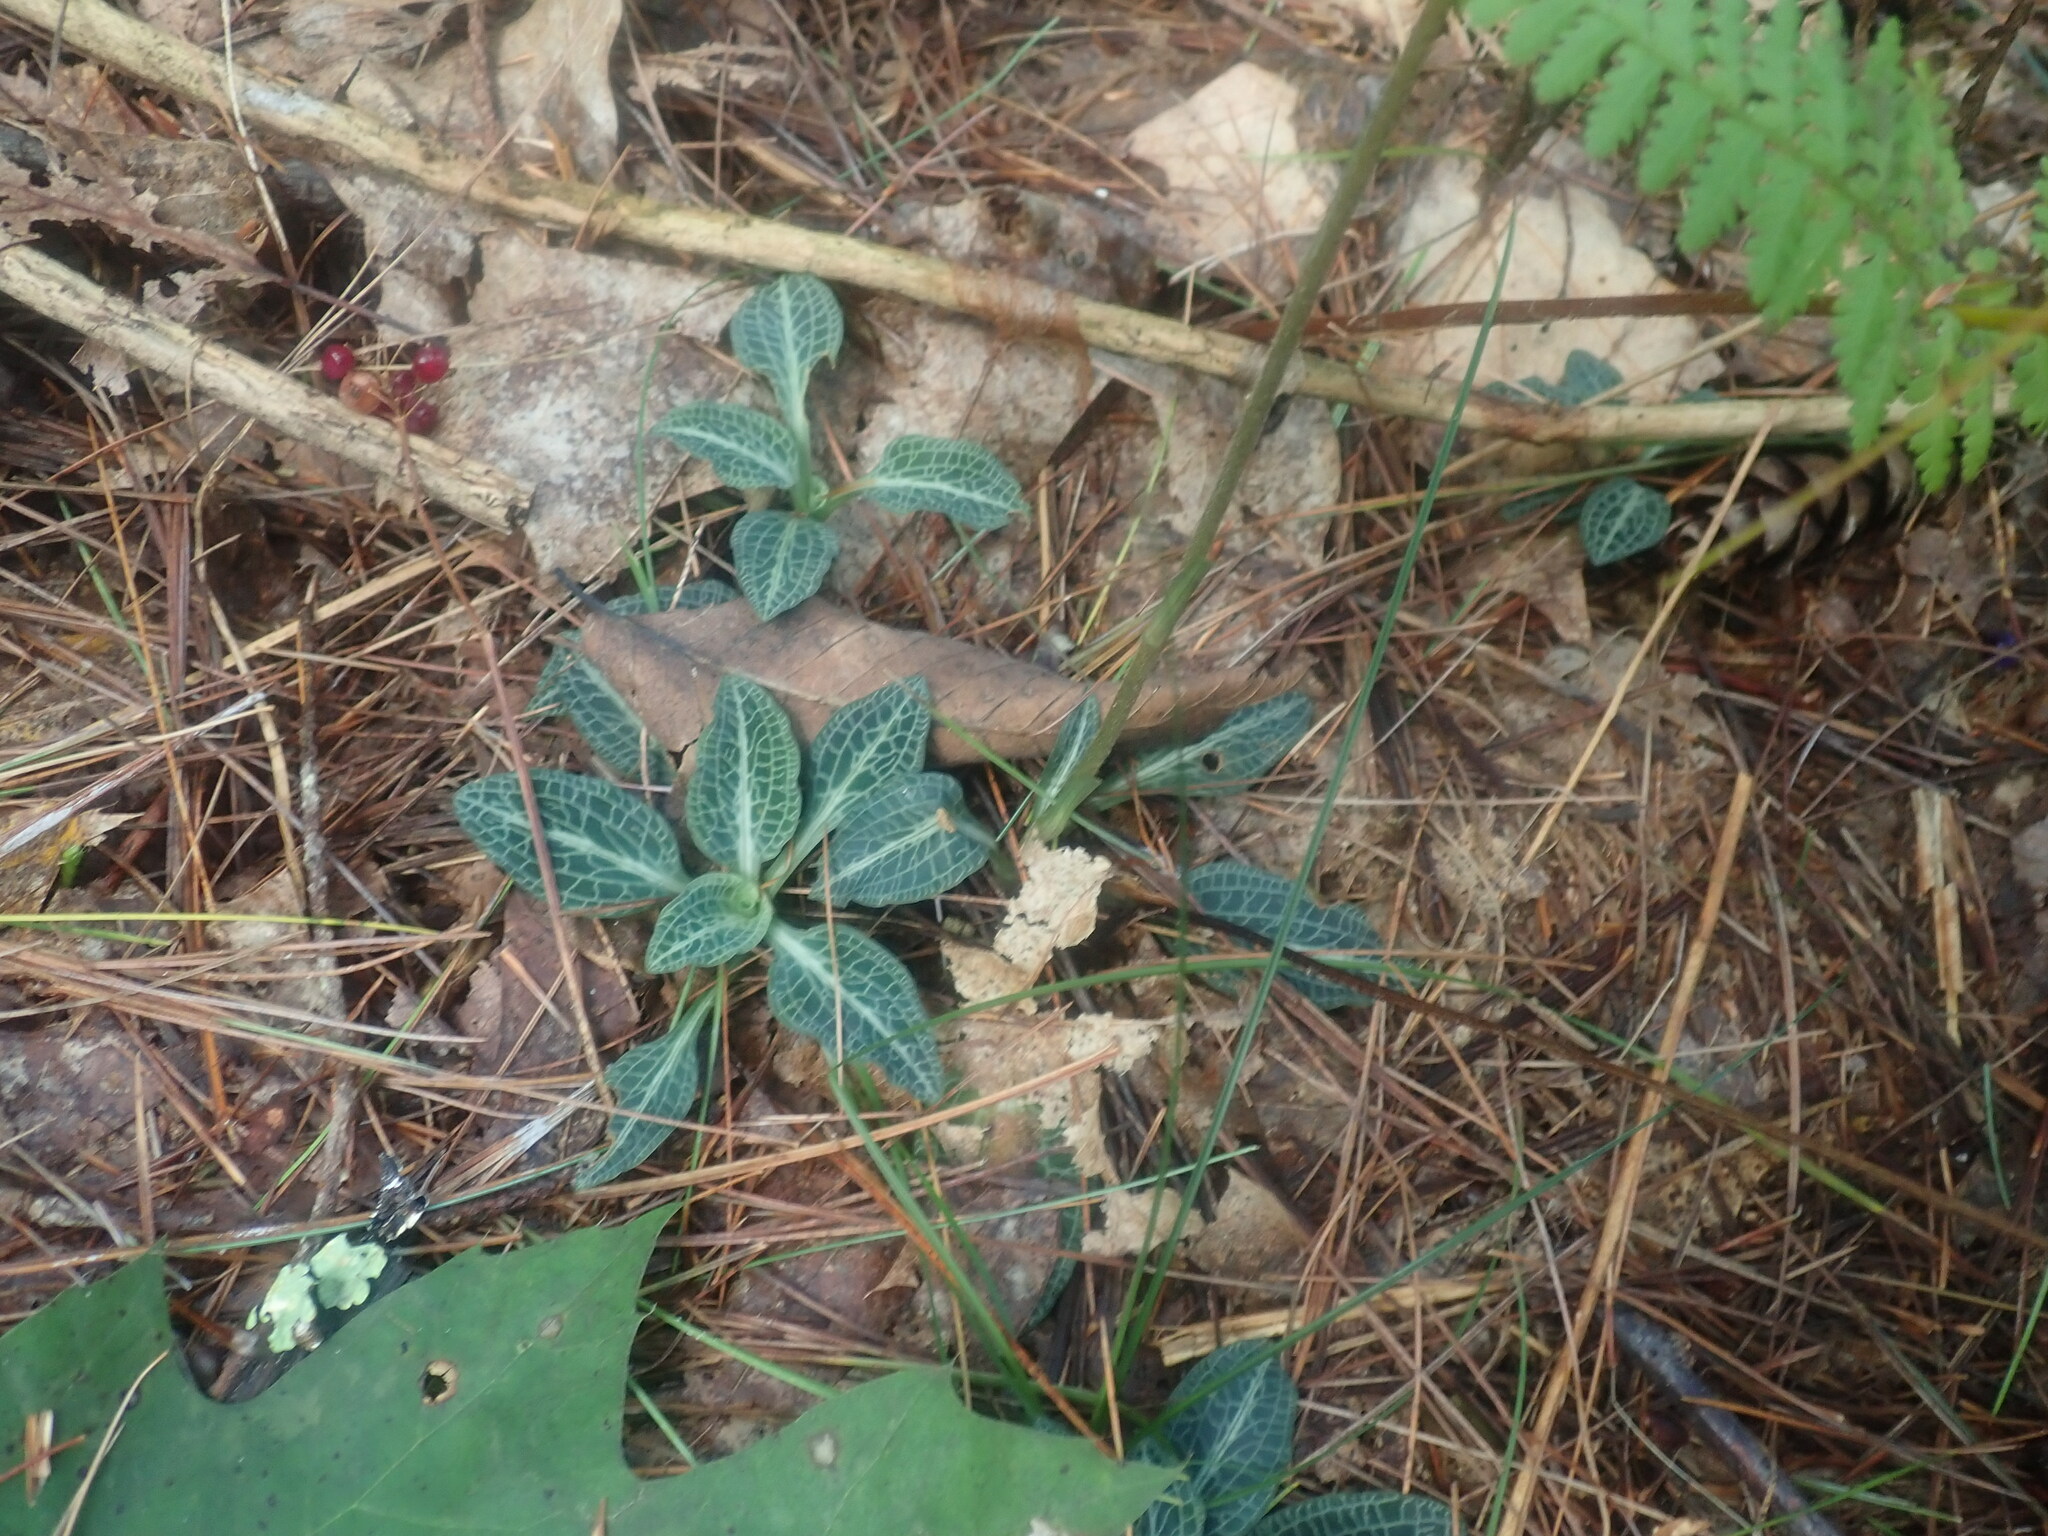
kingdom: Plantae
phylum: Tracheophyta
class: Liliopsida
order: Asparagales
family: Orchidaceae
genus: Goodyera
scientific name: Goodyera pubescens
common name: Downy rattlesnake-plantain
